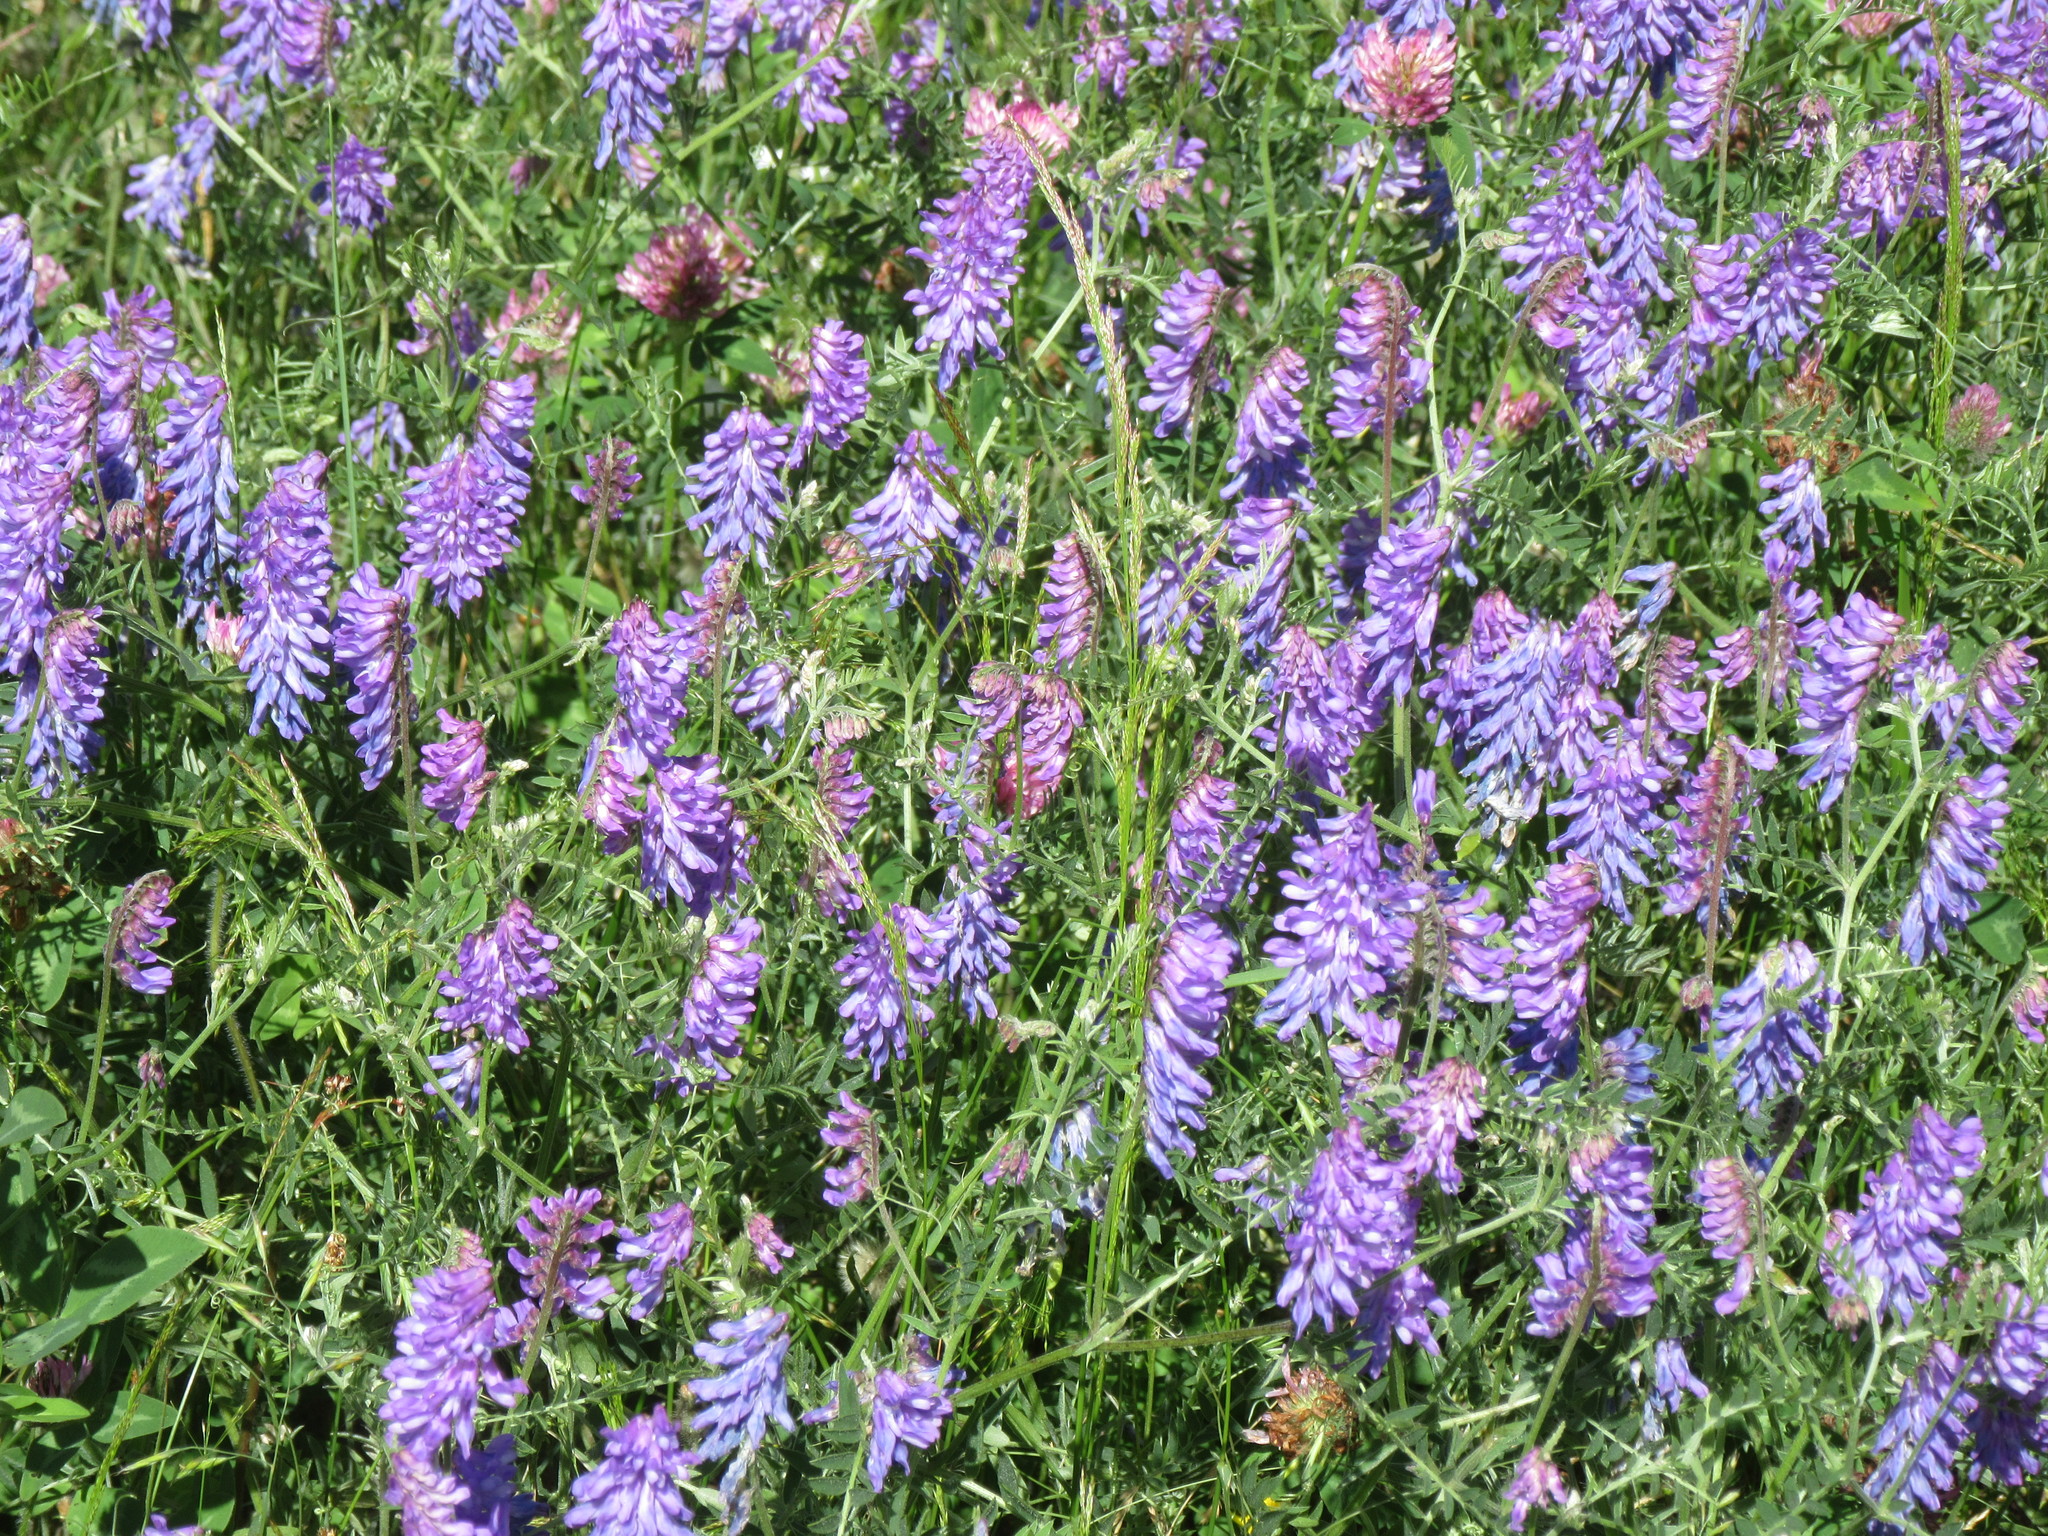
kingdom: Plantae
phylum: Tracheophyta
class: Magnoliopsida
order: Fabales
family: Fabaceae
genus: Vicia
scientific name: Vicia cracca
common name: Bird vetch
